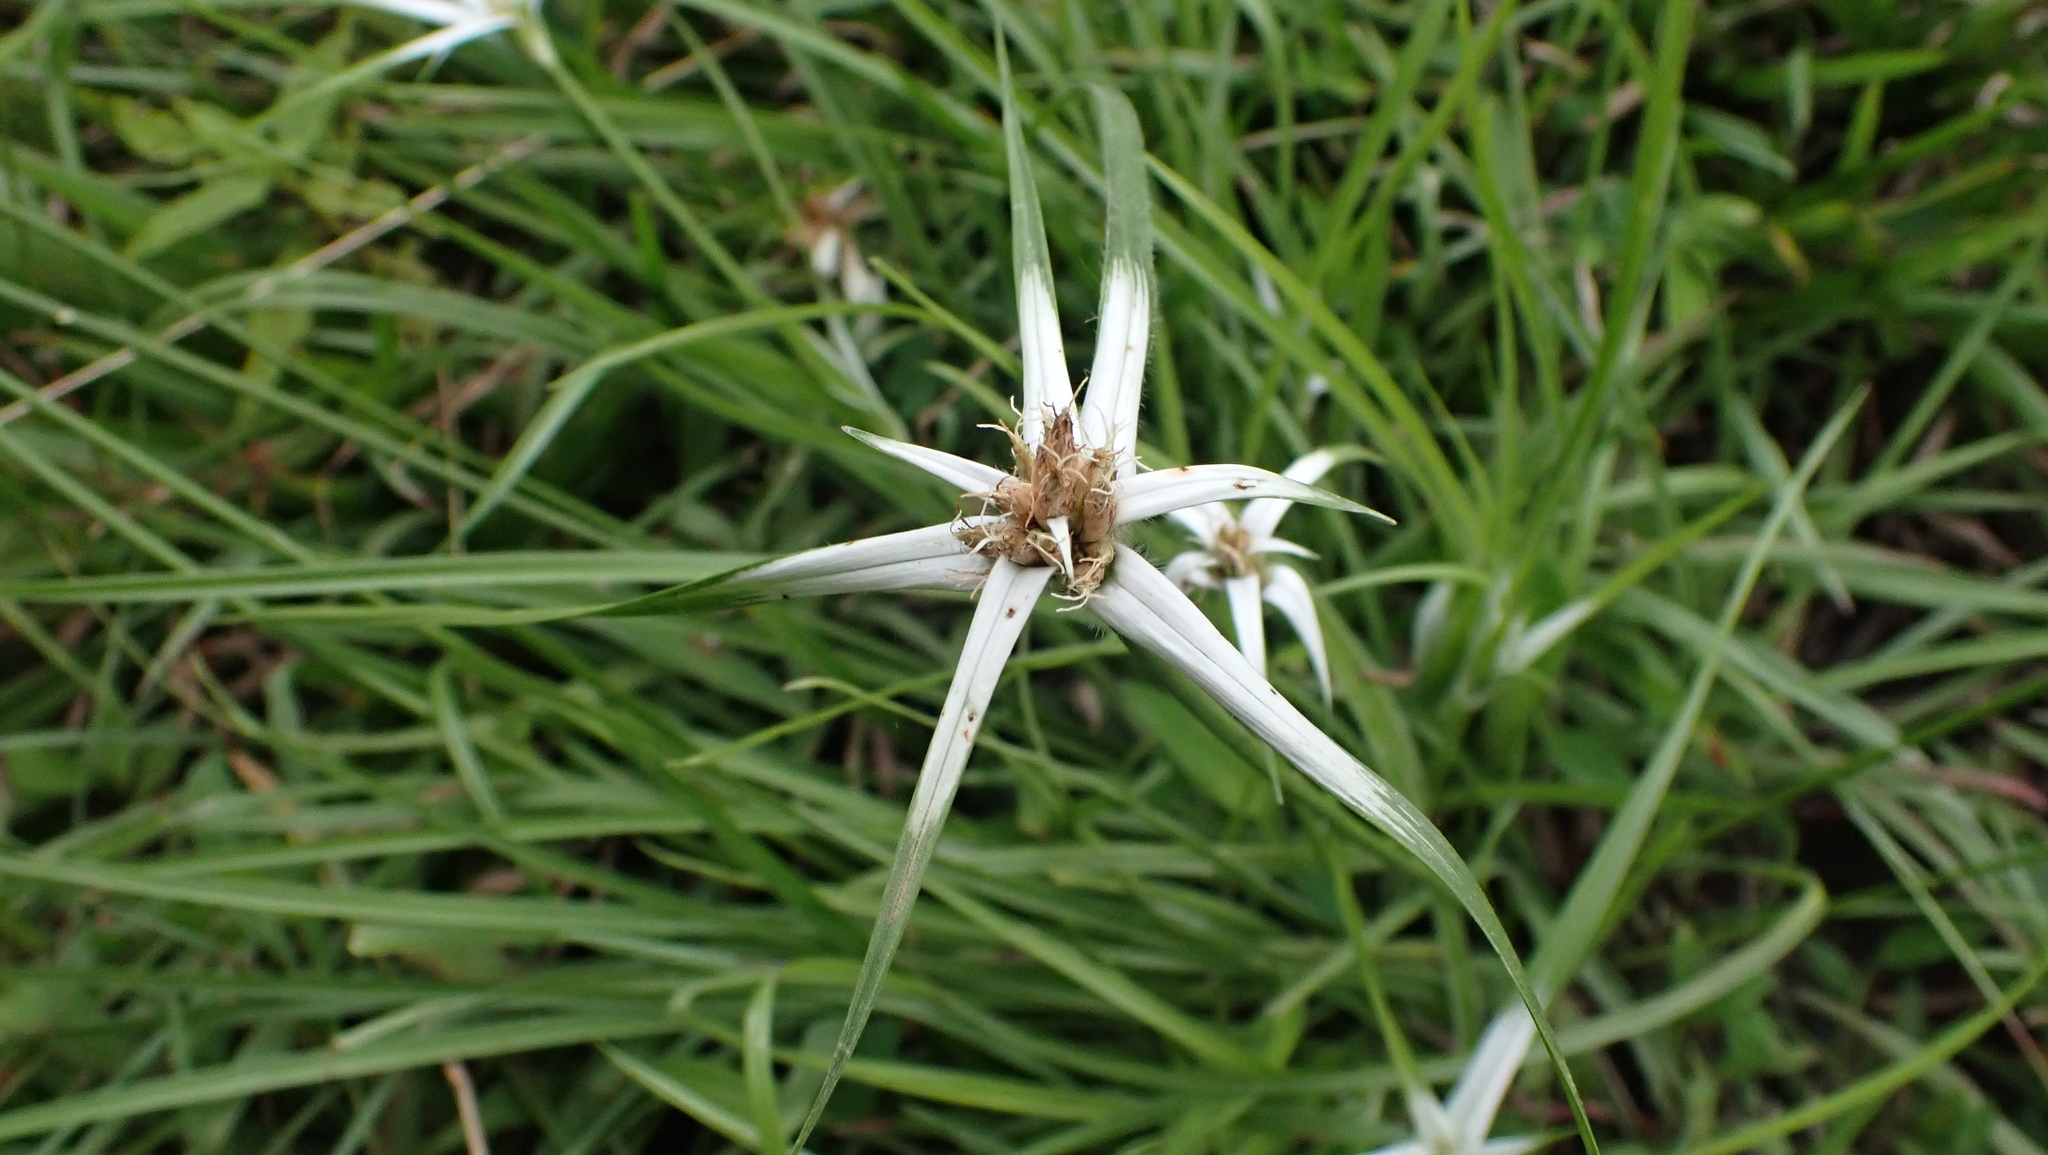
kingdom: Plantae
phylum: Tracheophyta
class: Liliopsida
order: Poales
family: Cyperaceae
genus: Rhynchospora
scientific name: Rhynchospora nervosa
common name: Star sedge
